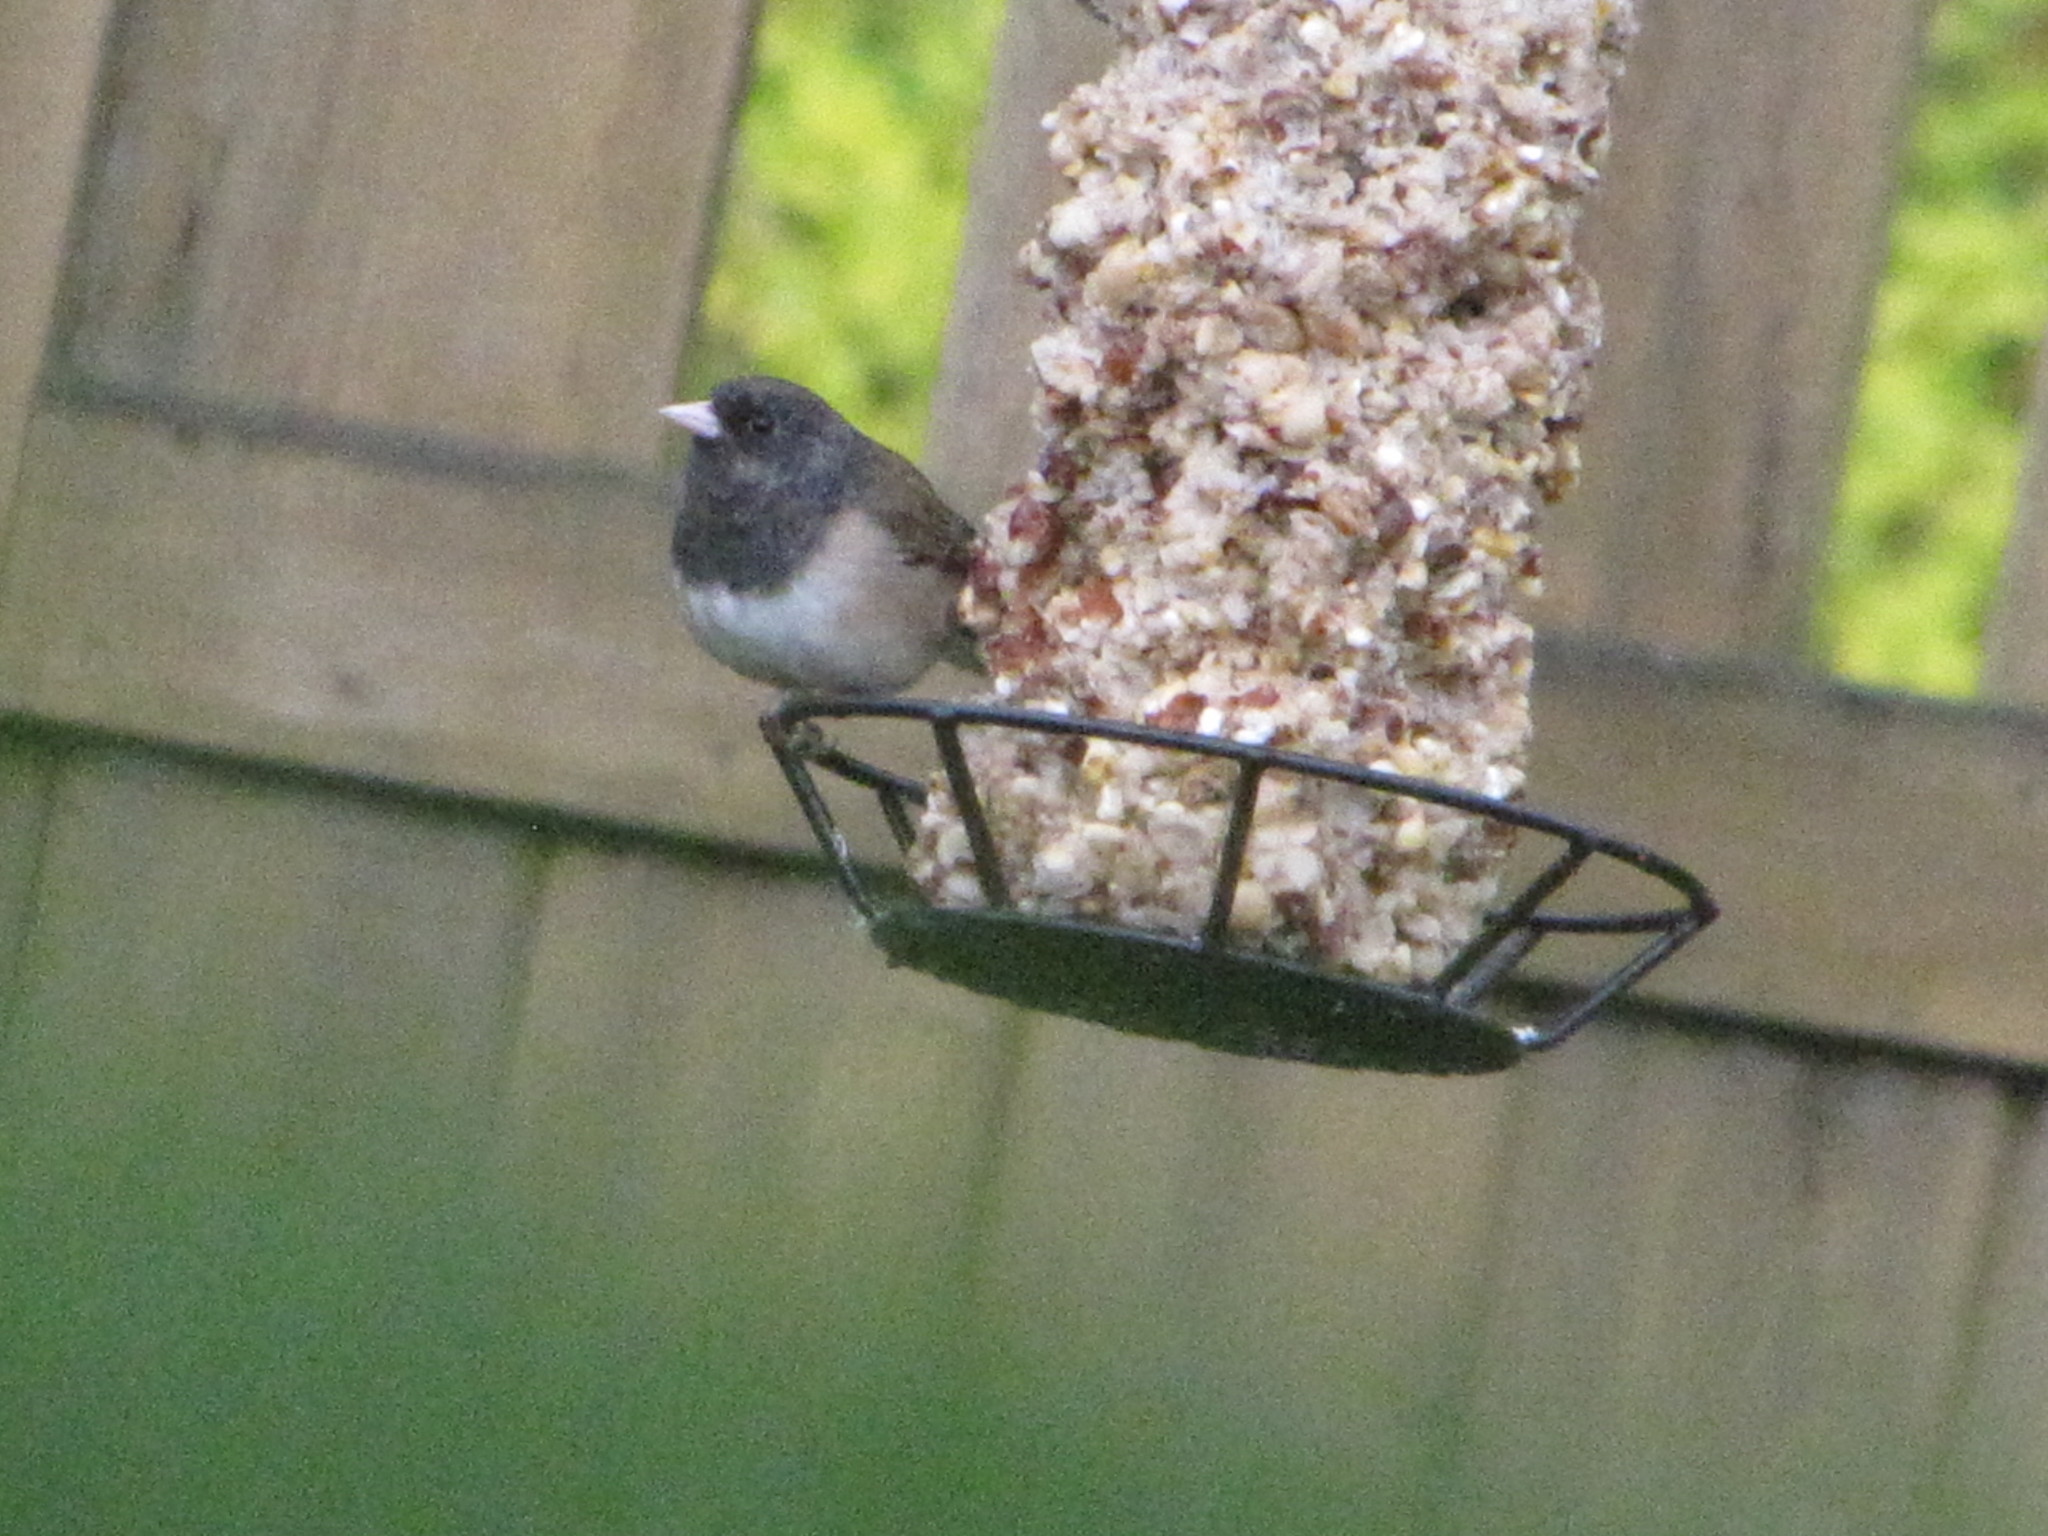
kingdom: Animalia
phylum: Chordata
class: Aves
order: Passeriformes
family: Passerellidae
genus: Junco
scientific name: Junco hyemalis
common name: Dark-eyed junco
